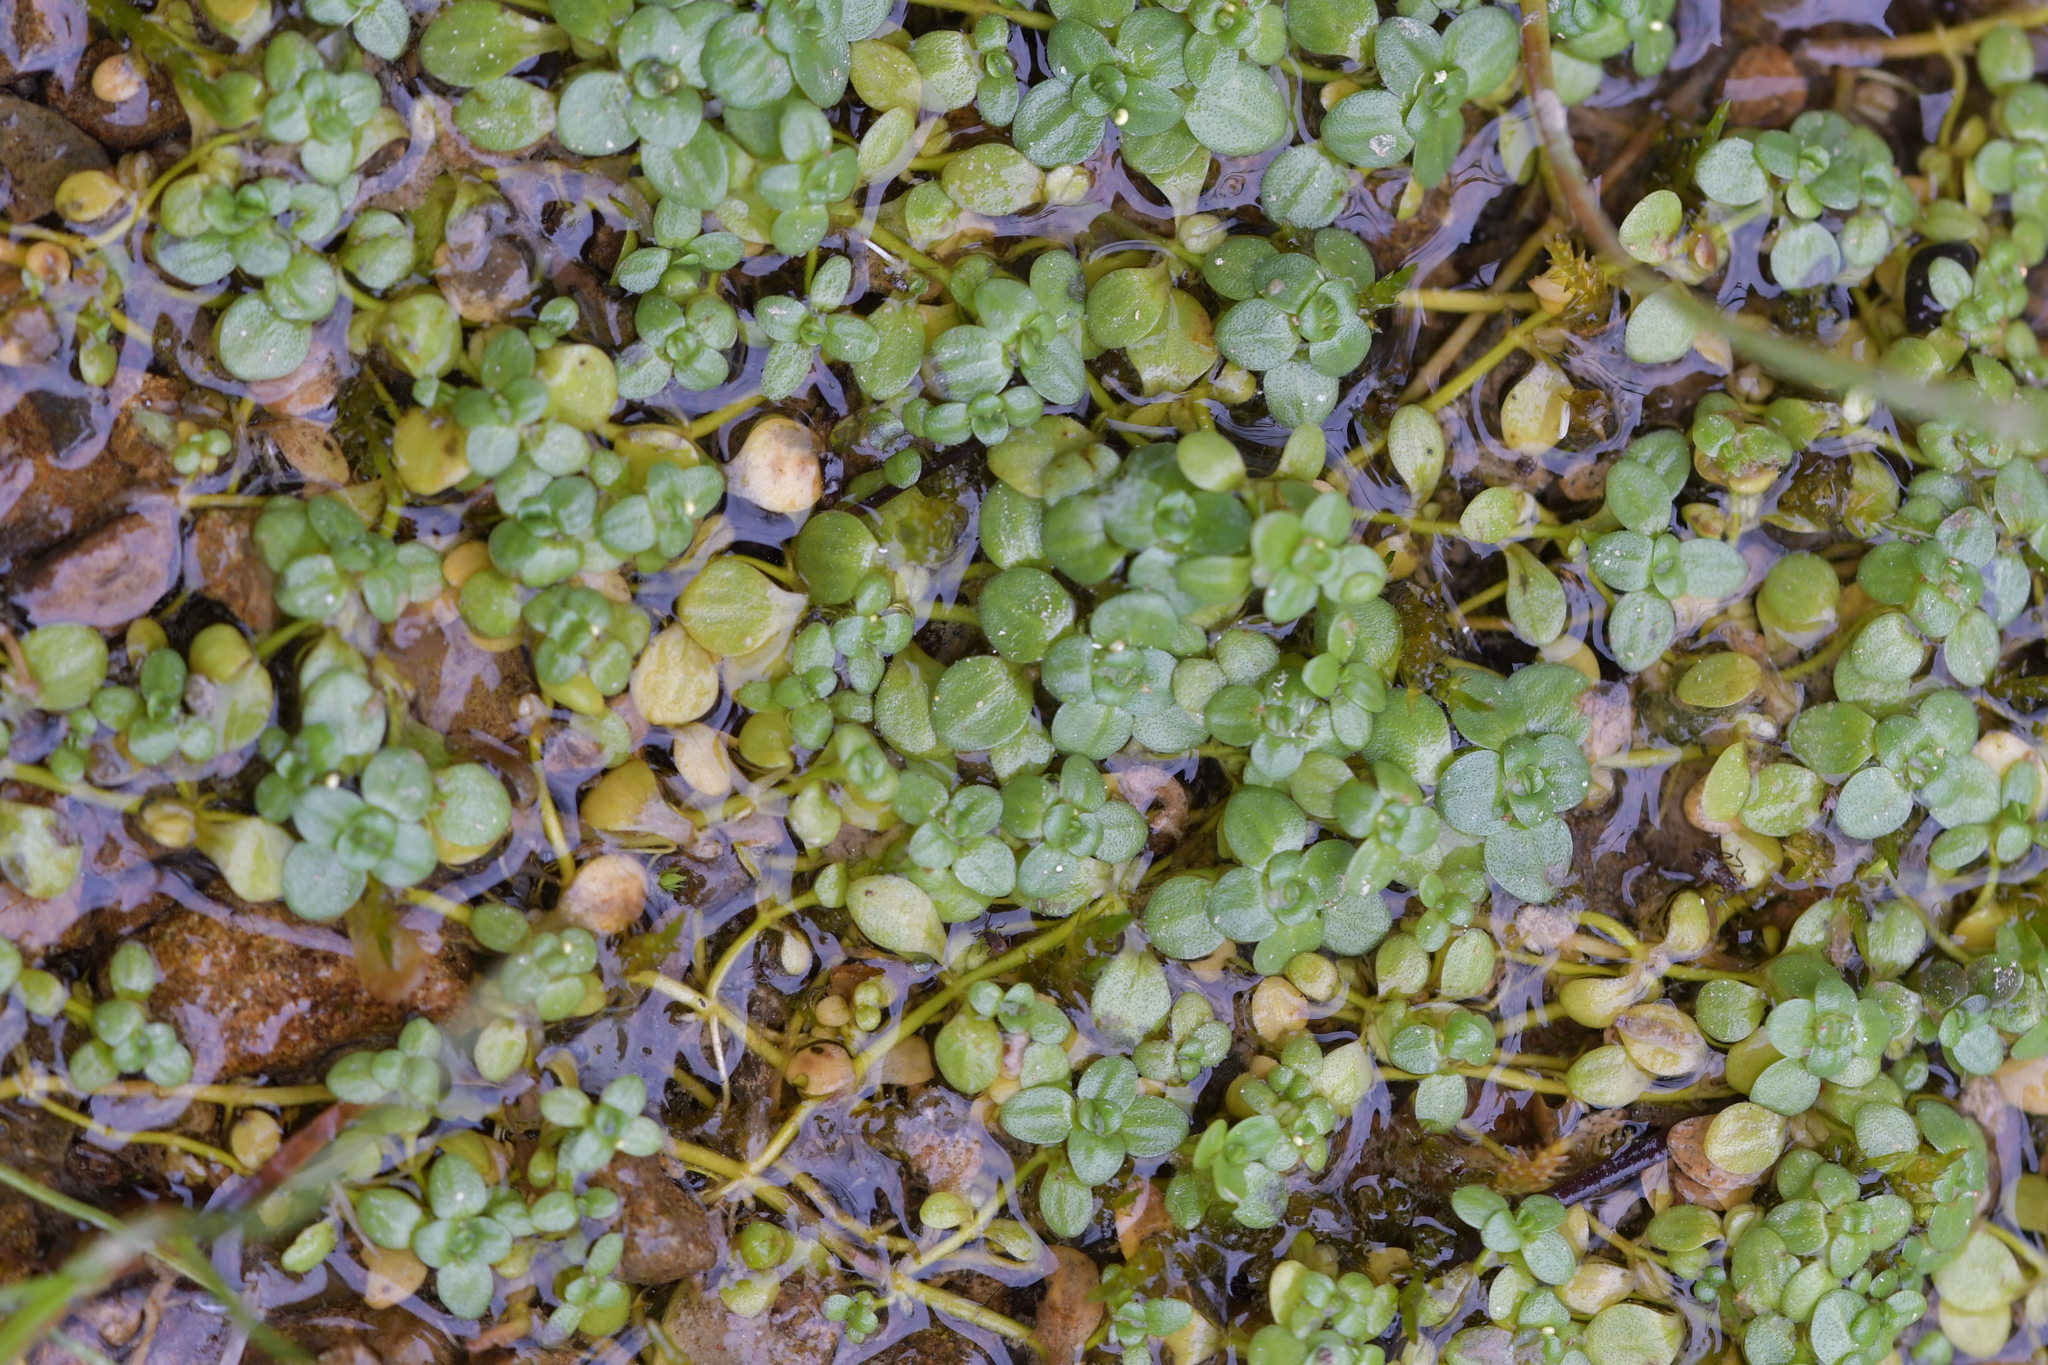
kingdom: Plantae
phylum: Tracheophyta
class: Magnoliopsida
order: Lamiales
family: Plantaginaceae
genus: Callitriche
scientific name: Callitriche stagnalis
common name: Common water-starwort
